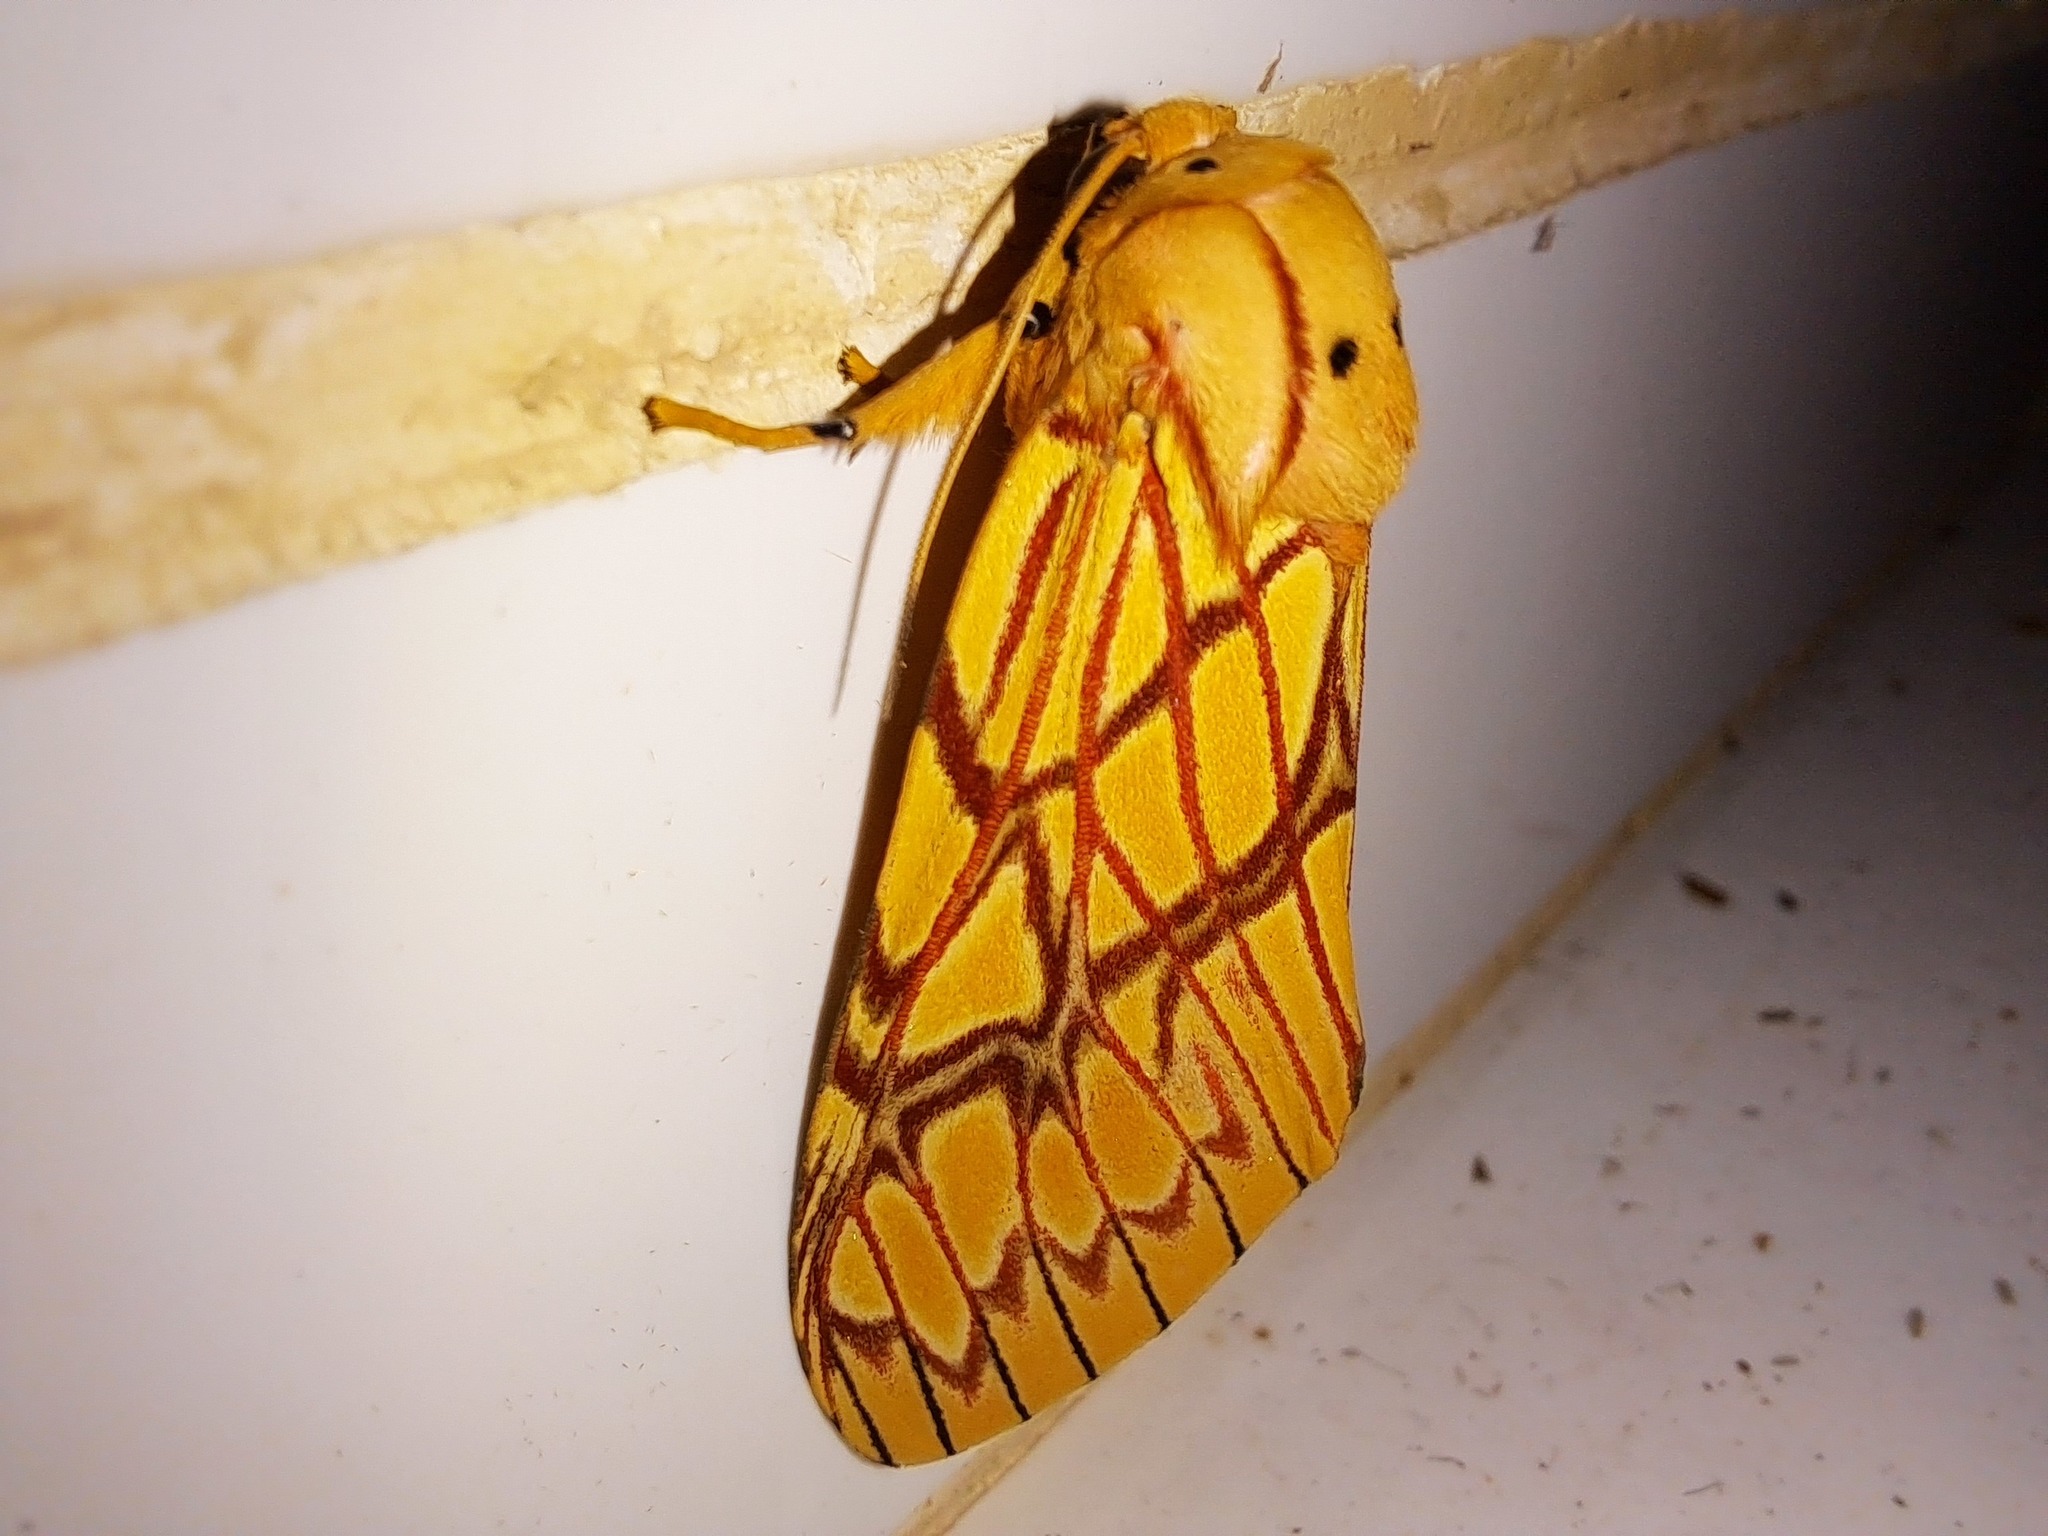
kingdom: Animalia
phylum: Arthropoda
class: Insecta
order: Lepidoptera
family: Erebidae
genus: Hypidalia
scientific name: Hypidalia sanguirena
